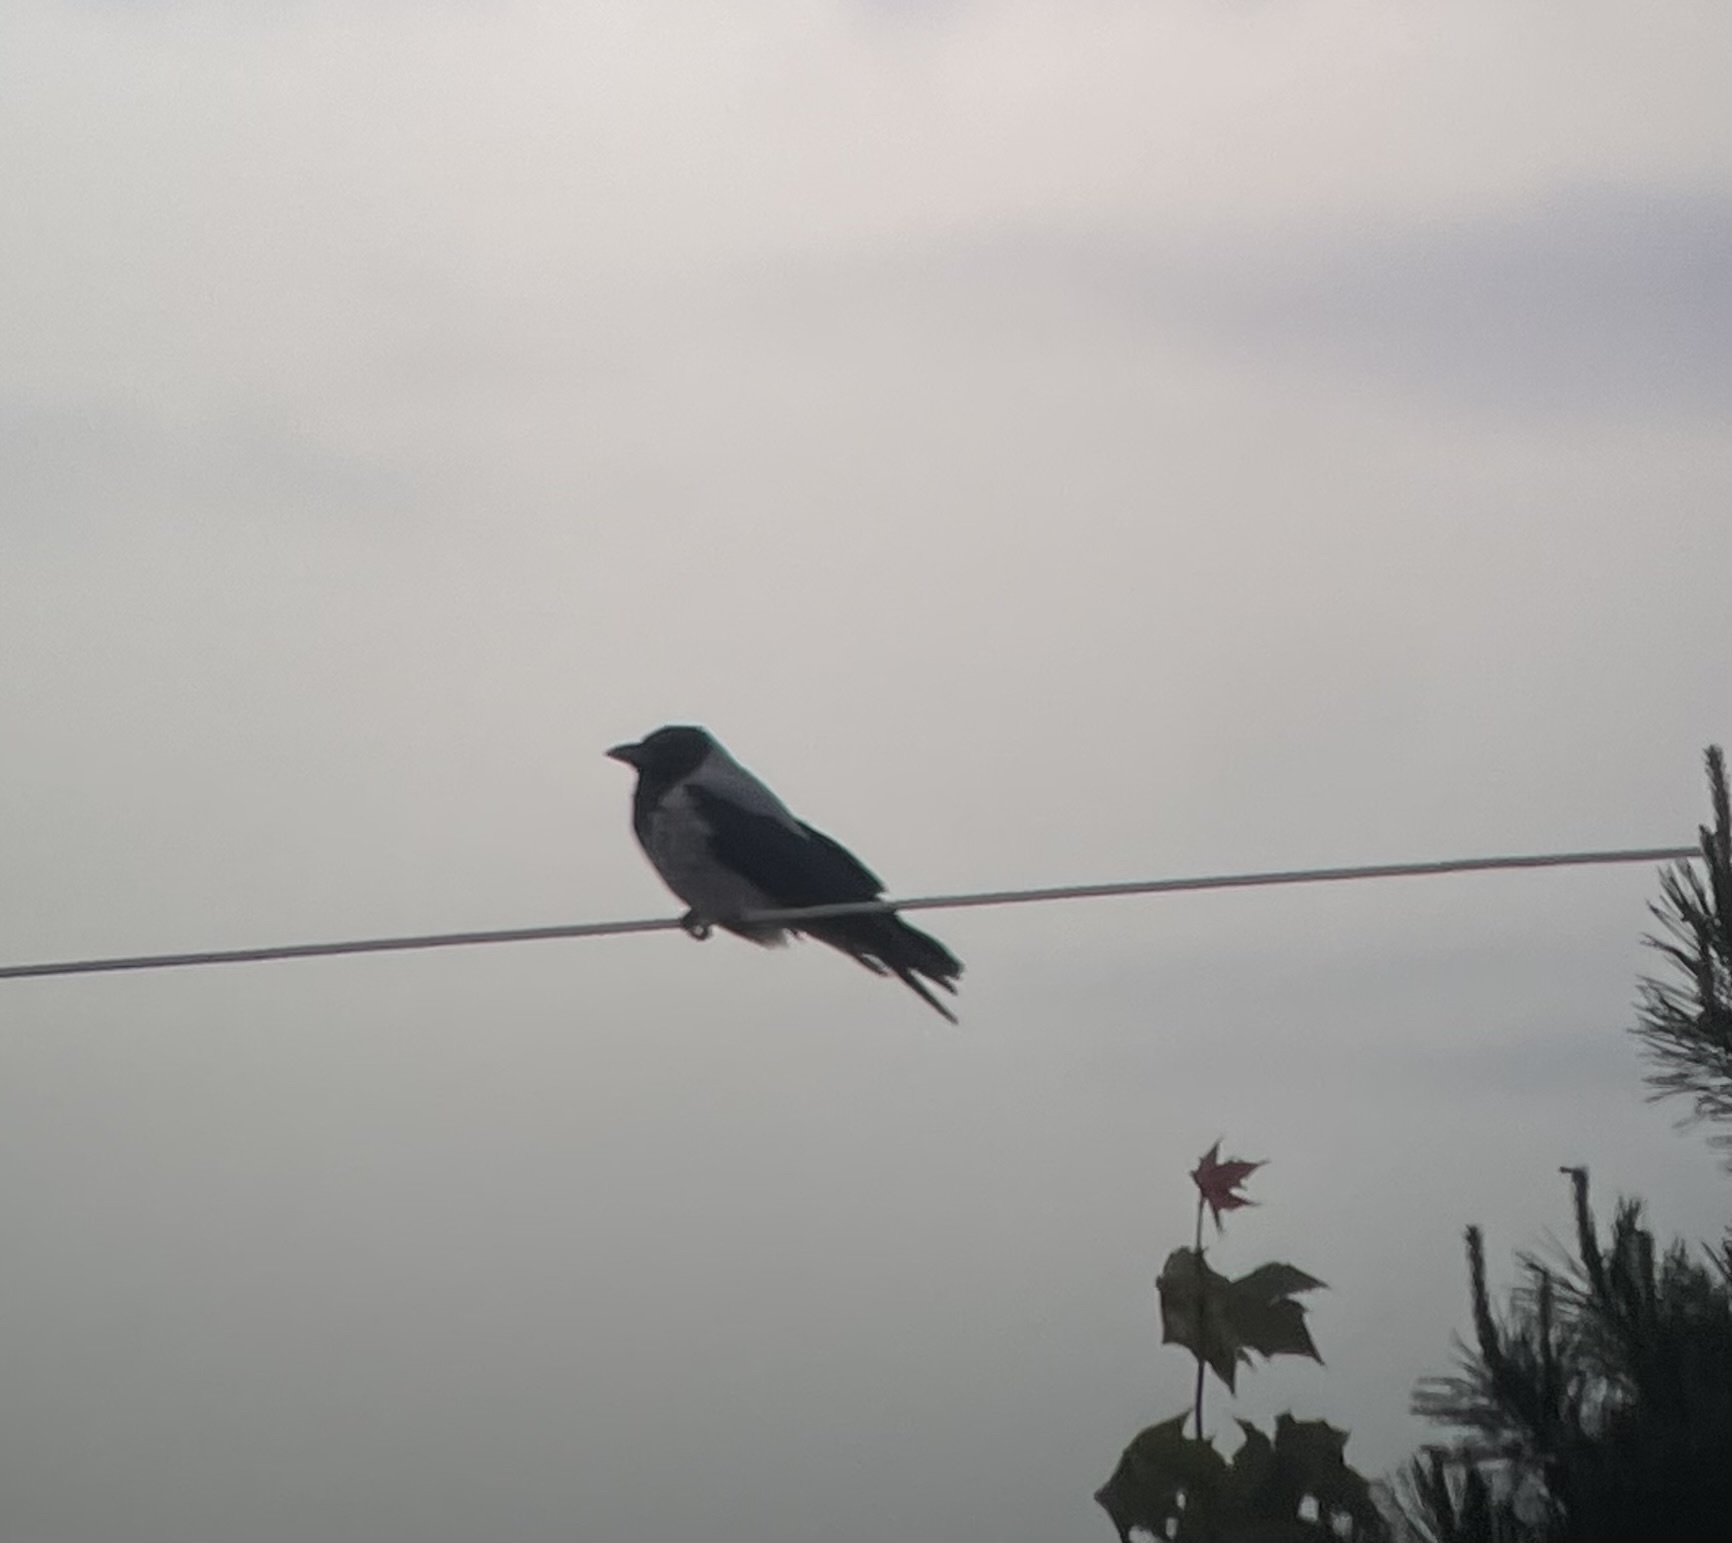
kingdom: Animalia
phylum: Chordata
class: Aves
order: Passeriformes
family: Corvidae
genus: Corvus
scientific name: Corvus cornix
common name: Hooded crow
